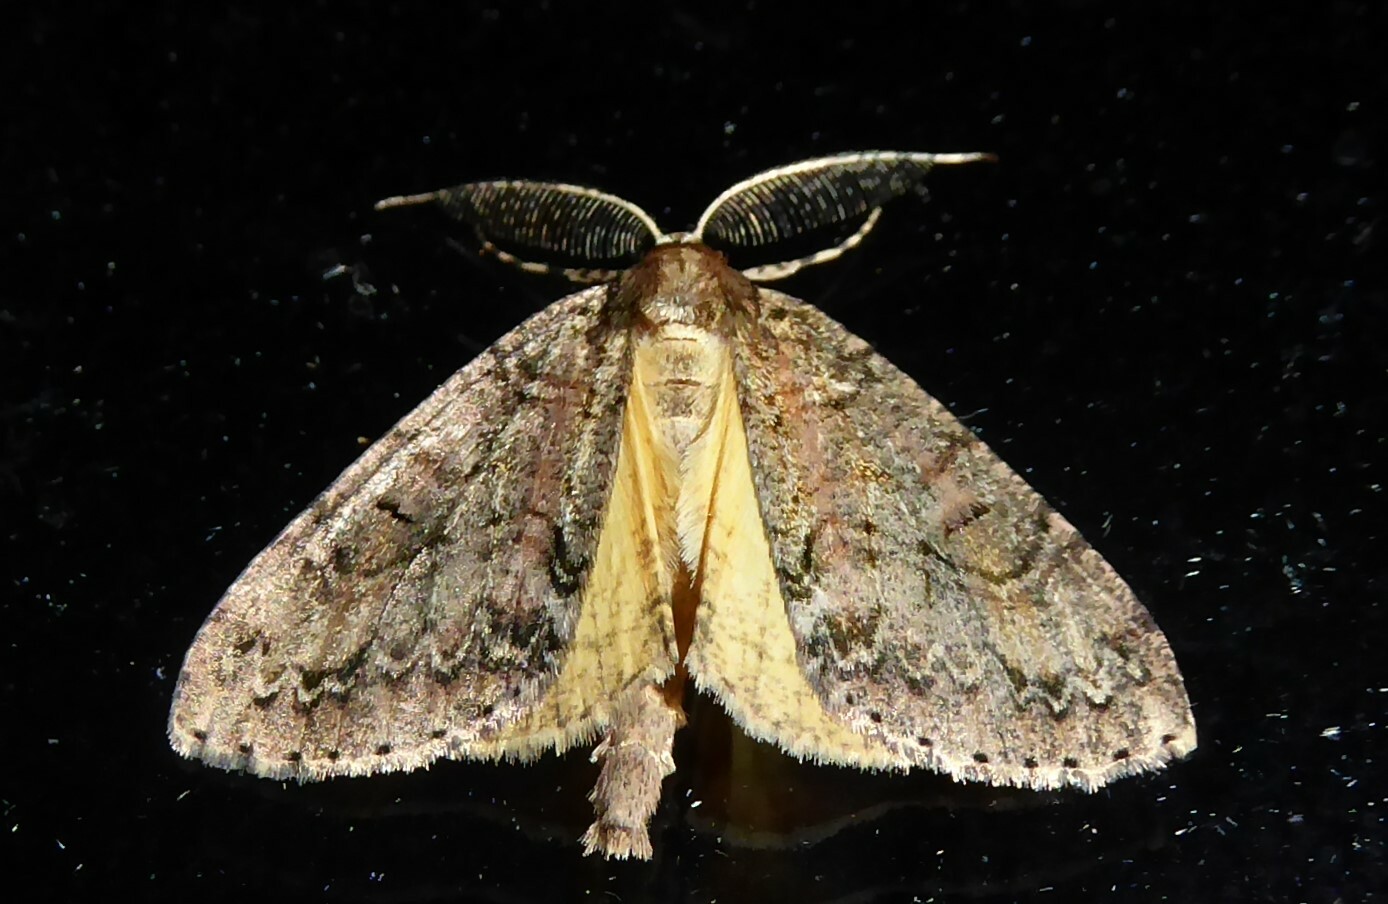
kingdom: Animalia
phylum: Arthropoda
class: Insecta
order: Lepidoptera
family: Geometridae
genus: Pseudocoremia
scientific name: Pseudocoremia suavis
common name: Common forest looper
